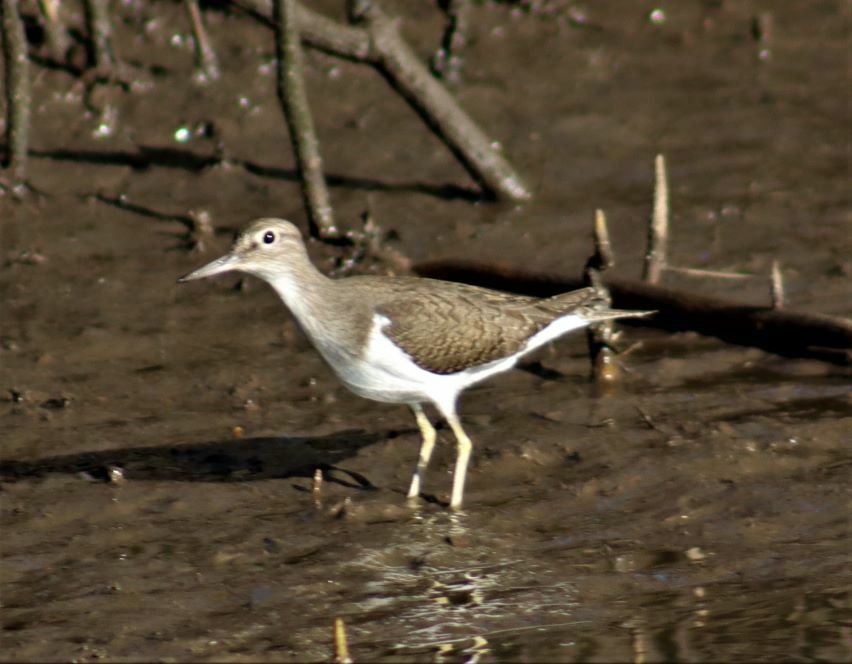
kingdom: Animalia
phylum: Chordata
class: Aves
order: Charadriiformes
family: Scolopacidae
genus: Actitis
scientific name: Actitis hypoleucos
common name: Common sandpiper
